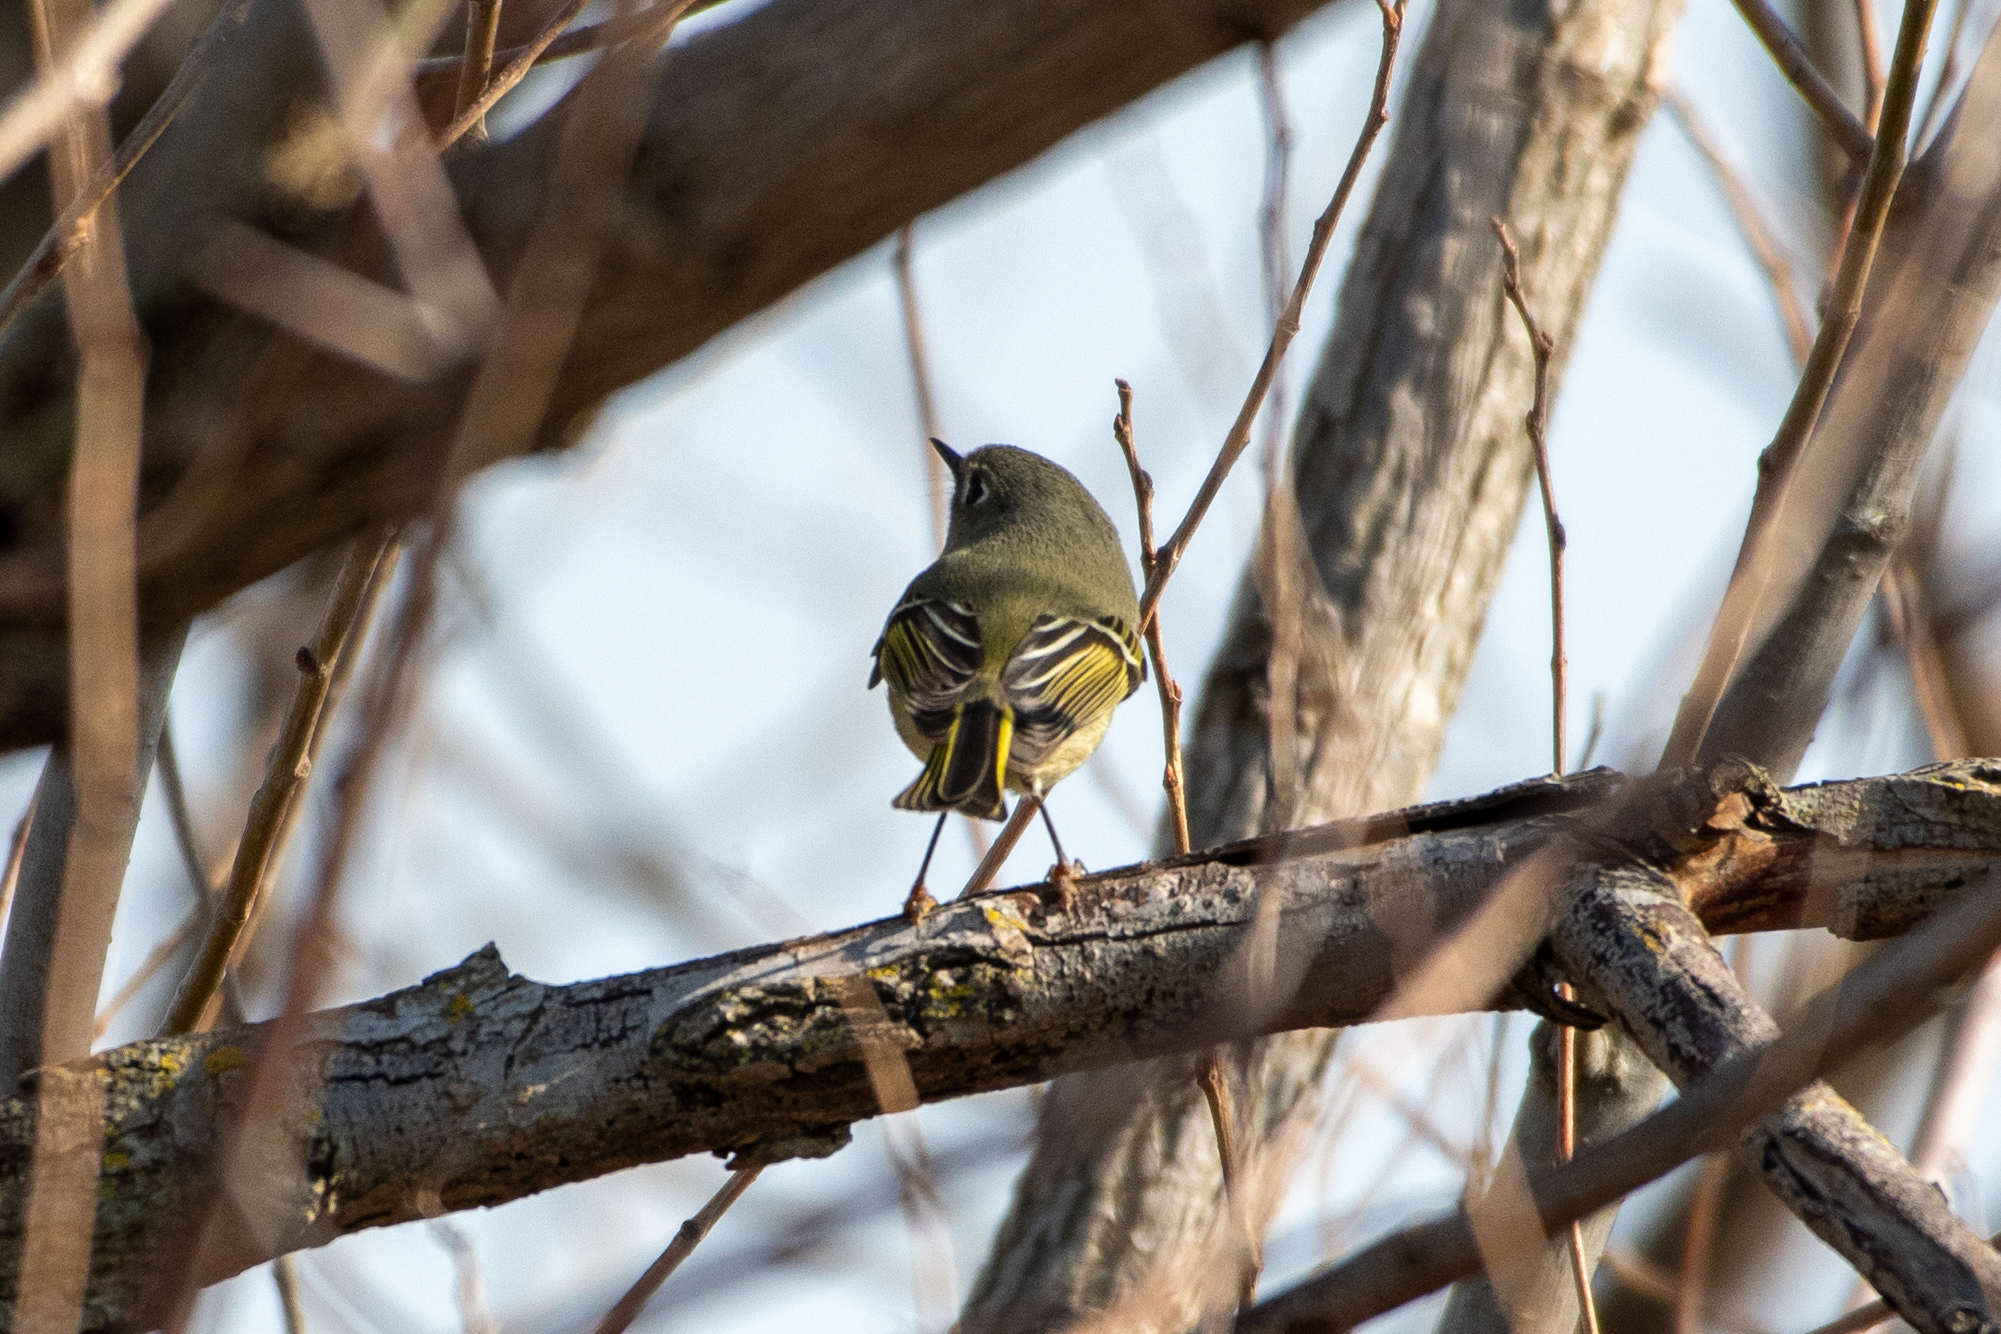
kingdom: Animalia
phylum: Chordata
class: Aves
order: Passeriformes
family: Regulidae
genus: Regulus
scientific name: Regulus calendula
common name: Ruby-crowned kinglet
